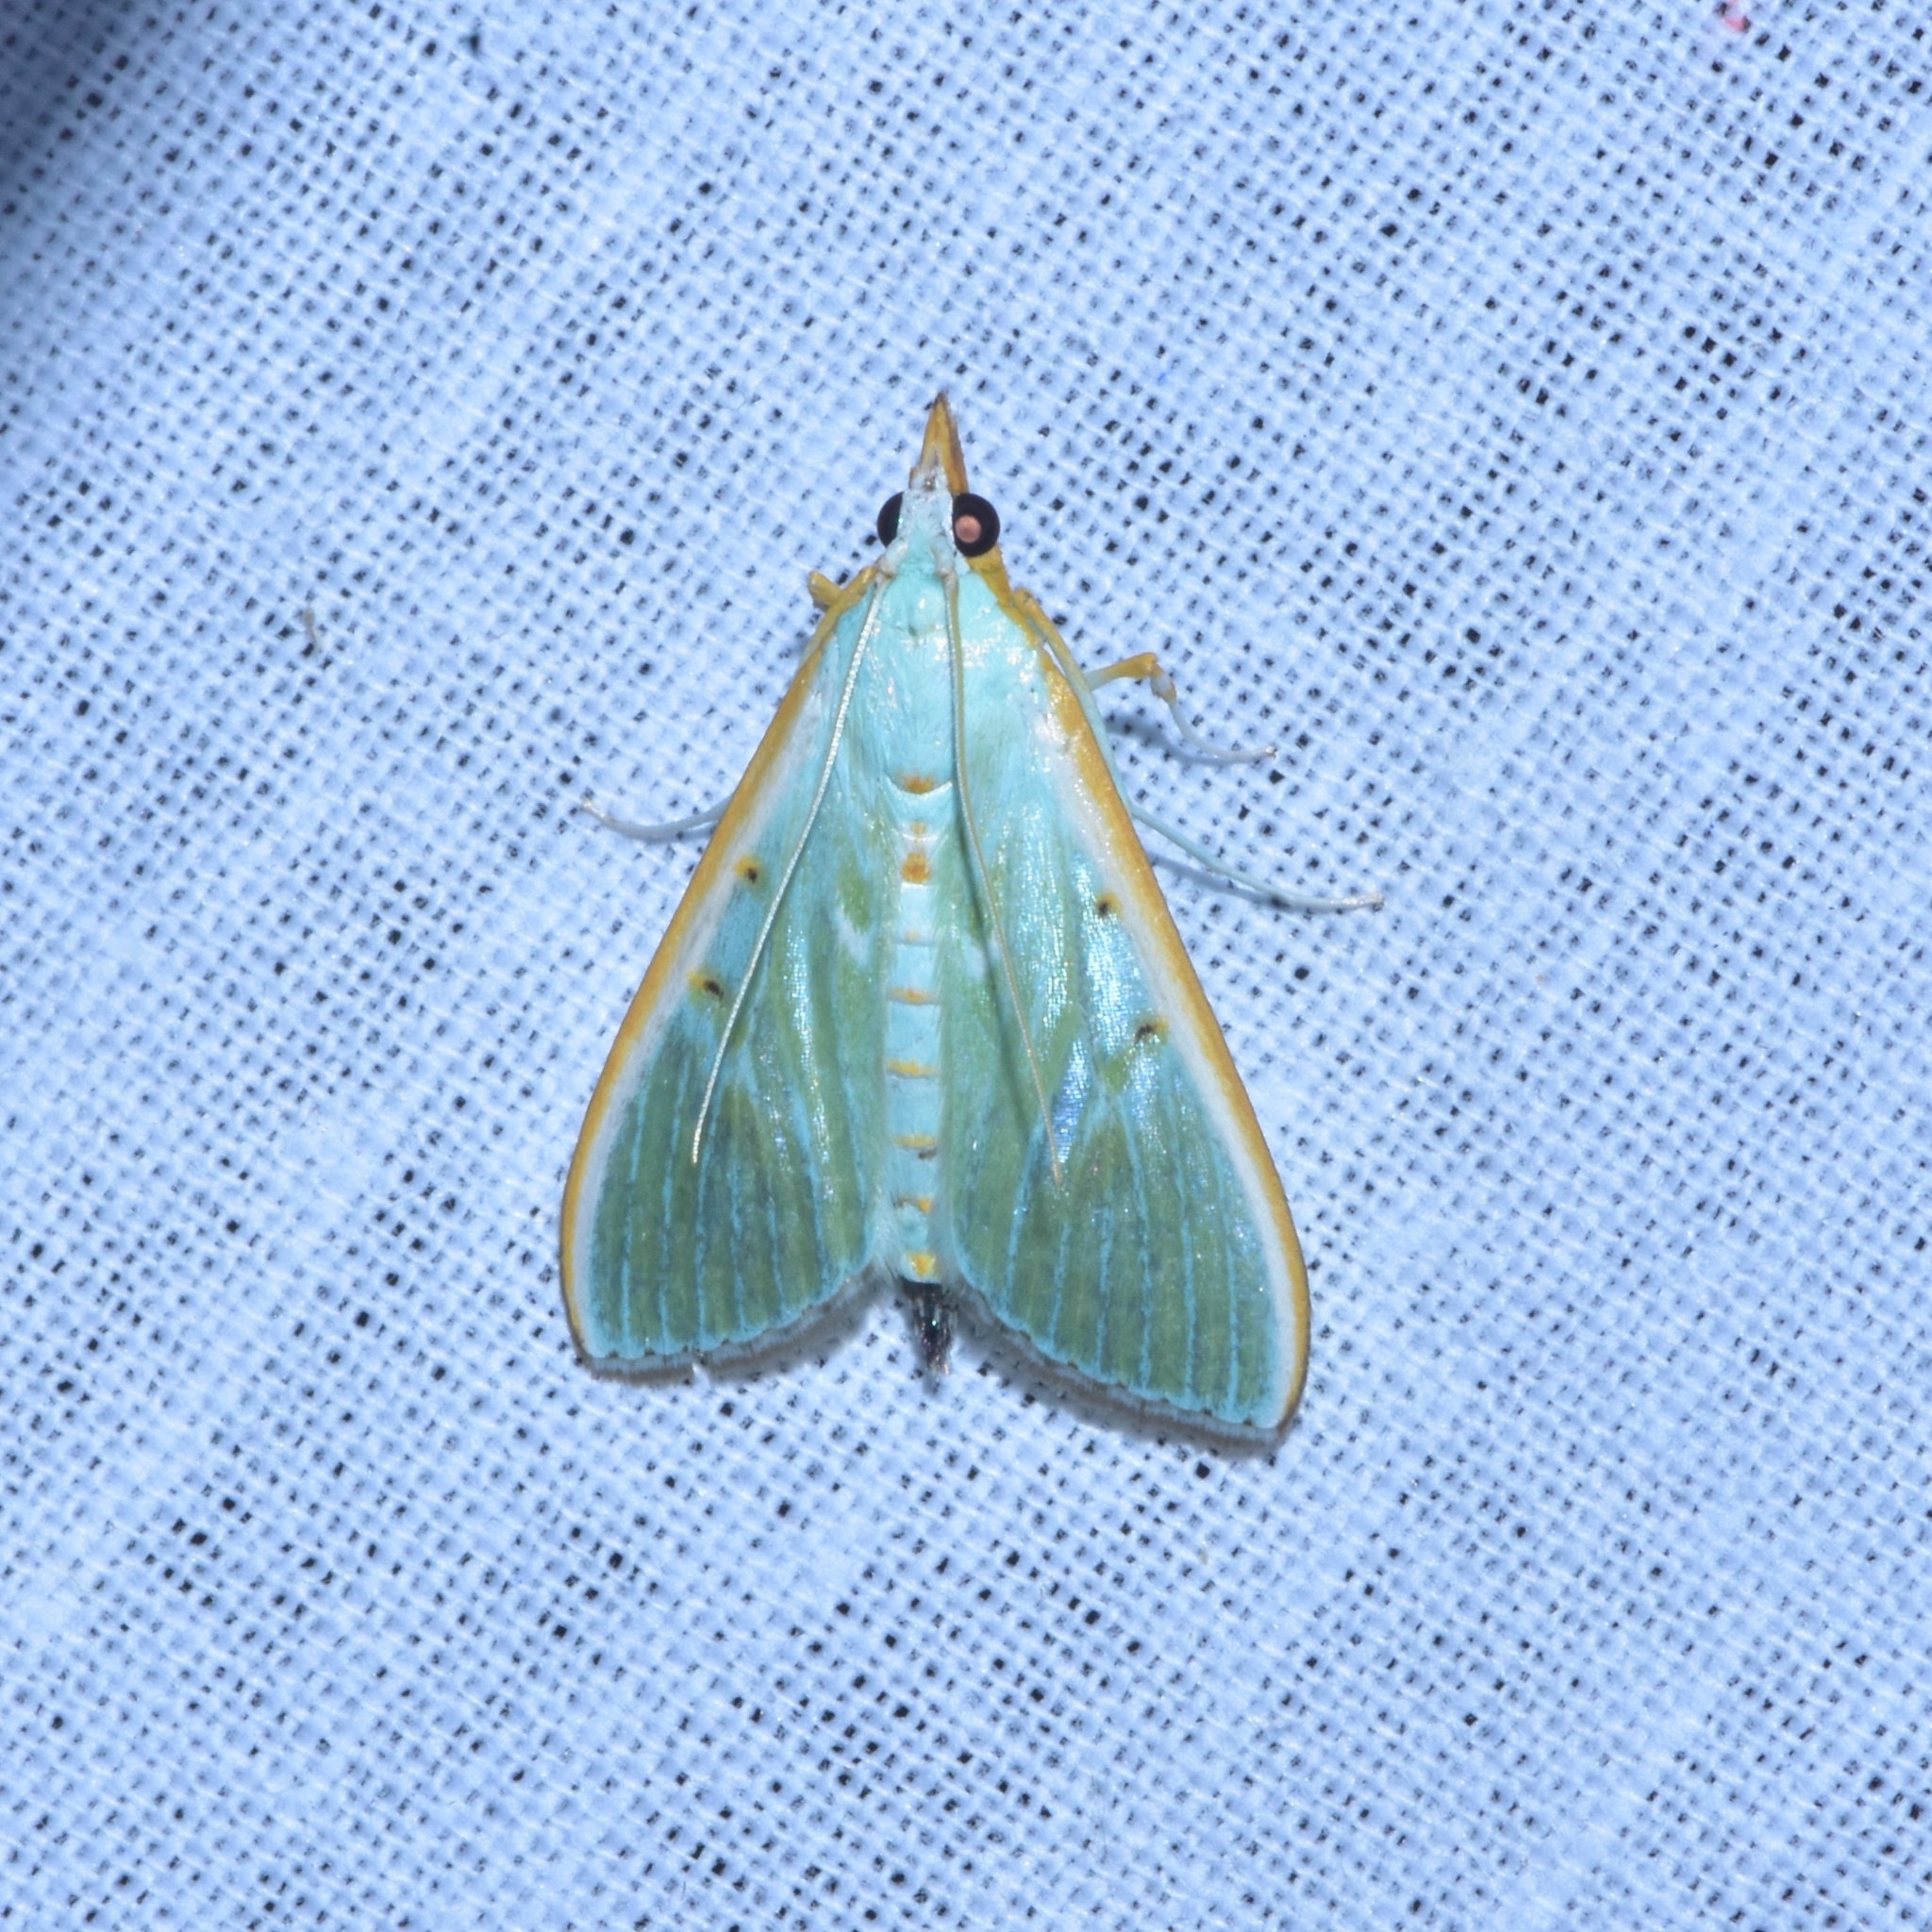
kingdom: Animalia
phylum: Arthropoda
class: Insecta
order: Lepidoptera
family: Crambidae
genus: Arthroschista
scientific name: Arthroschista hilaralis
